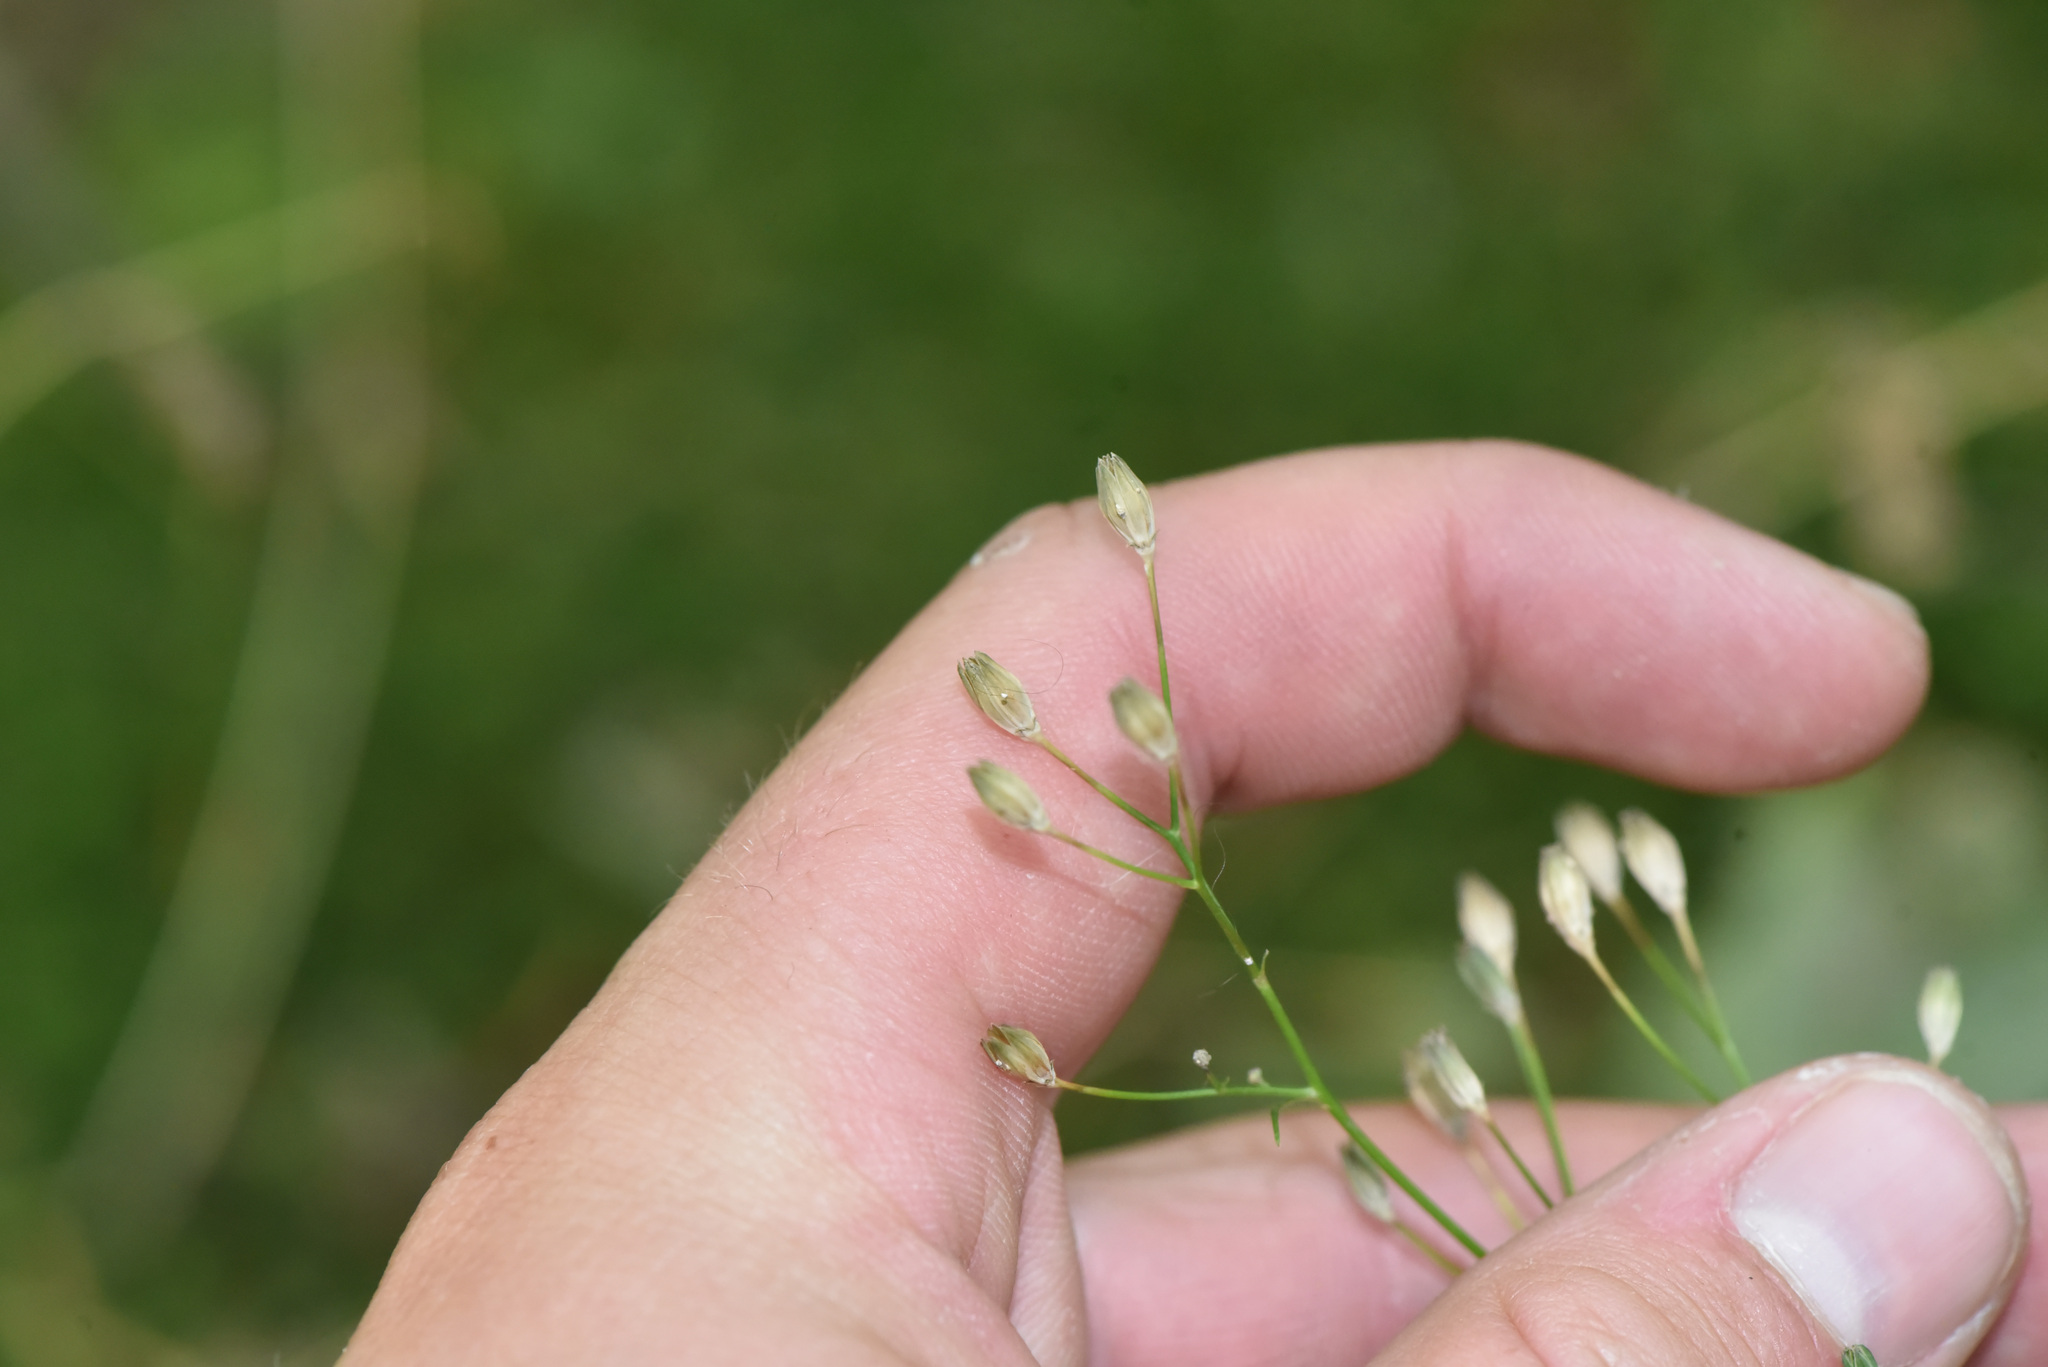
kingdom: Plantae
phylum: Tracheophyta
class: Magnoliopsida
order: Asterales
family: Asteraceae
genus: Lapsana
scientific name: Lapsana communis
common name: Nipplewort
